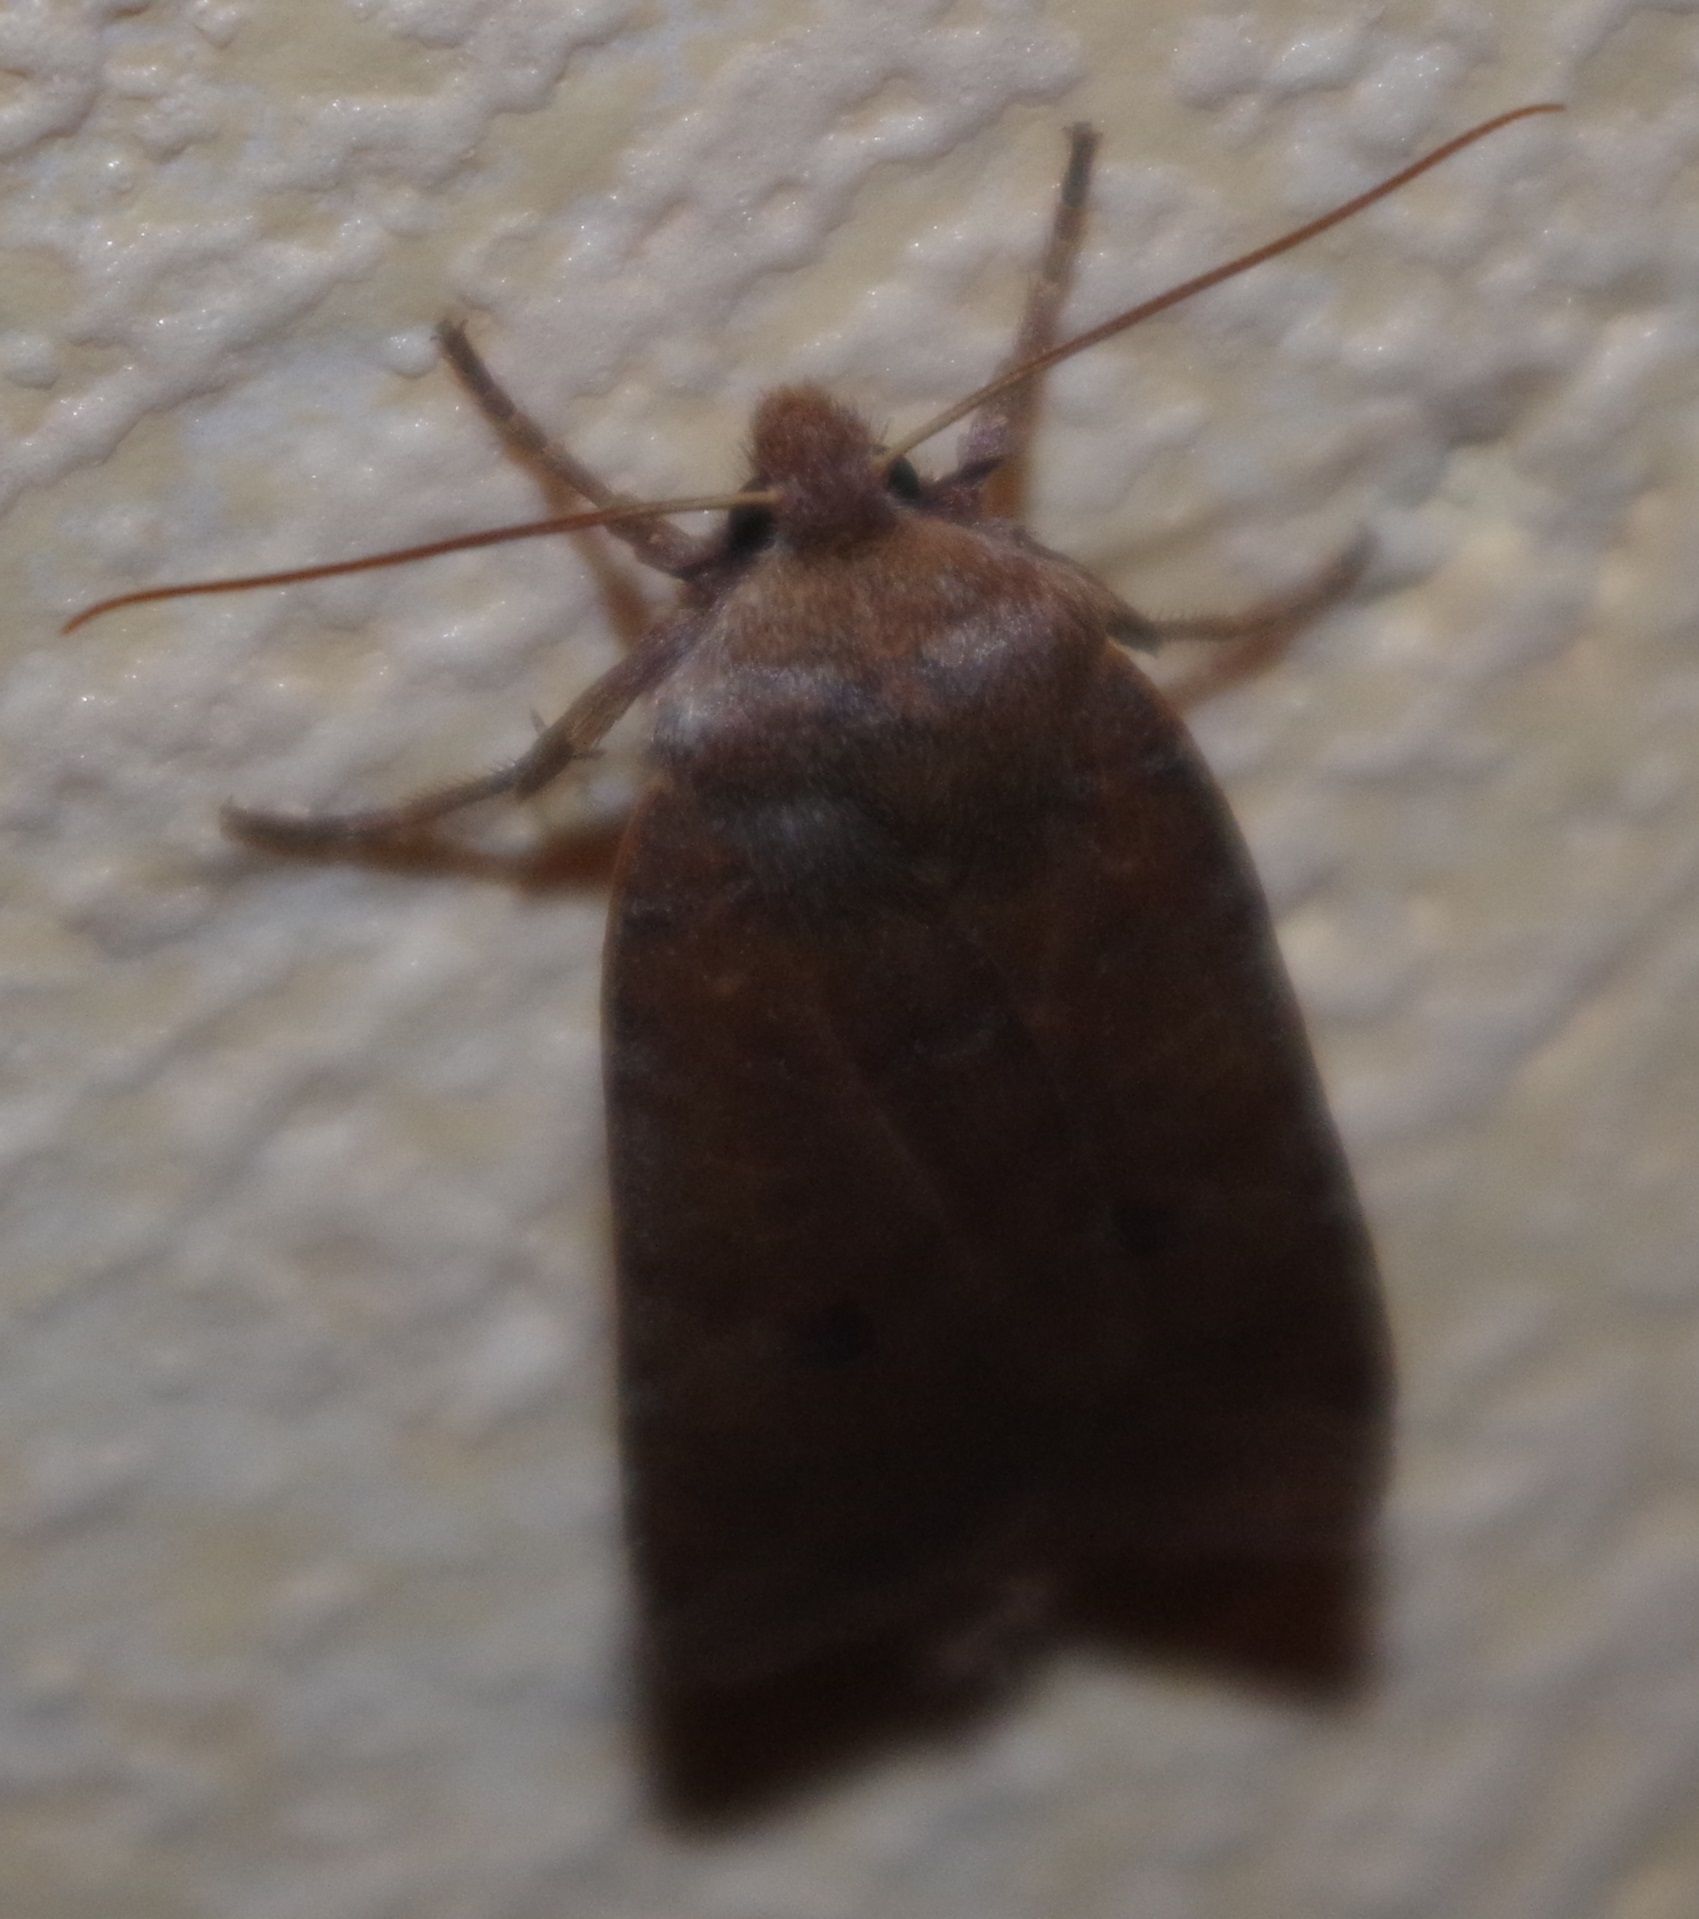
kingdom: Animalia
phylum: Arthropoda
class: Insecta
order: Lepidoptera
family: Noctuidae
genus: Conistra
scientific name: Conistra vaccinii
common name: Chestnut
